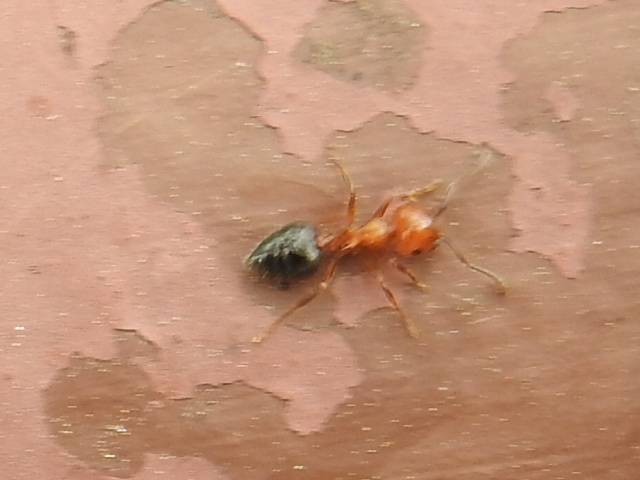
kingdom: Animalia
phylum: Arthropoda
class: Insecta
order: Hymenoptera
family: Formicidae
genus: Crematogaster
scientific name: Crematogaster laeviuscula
